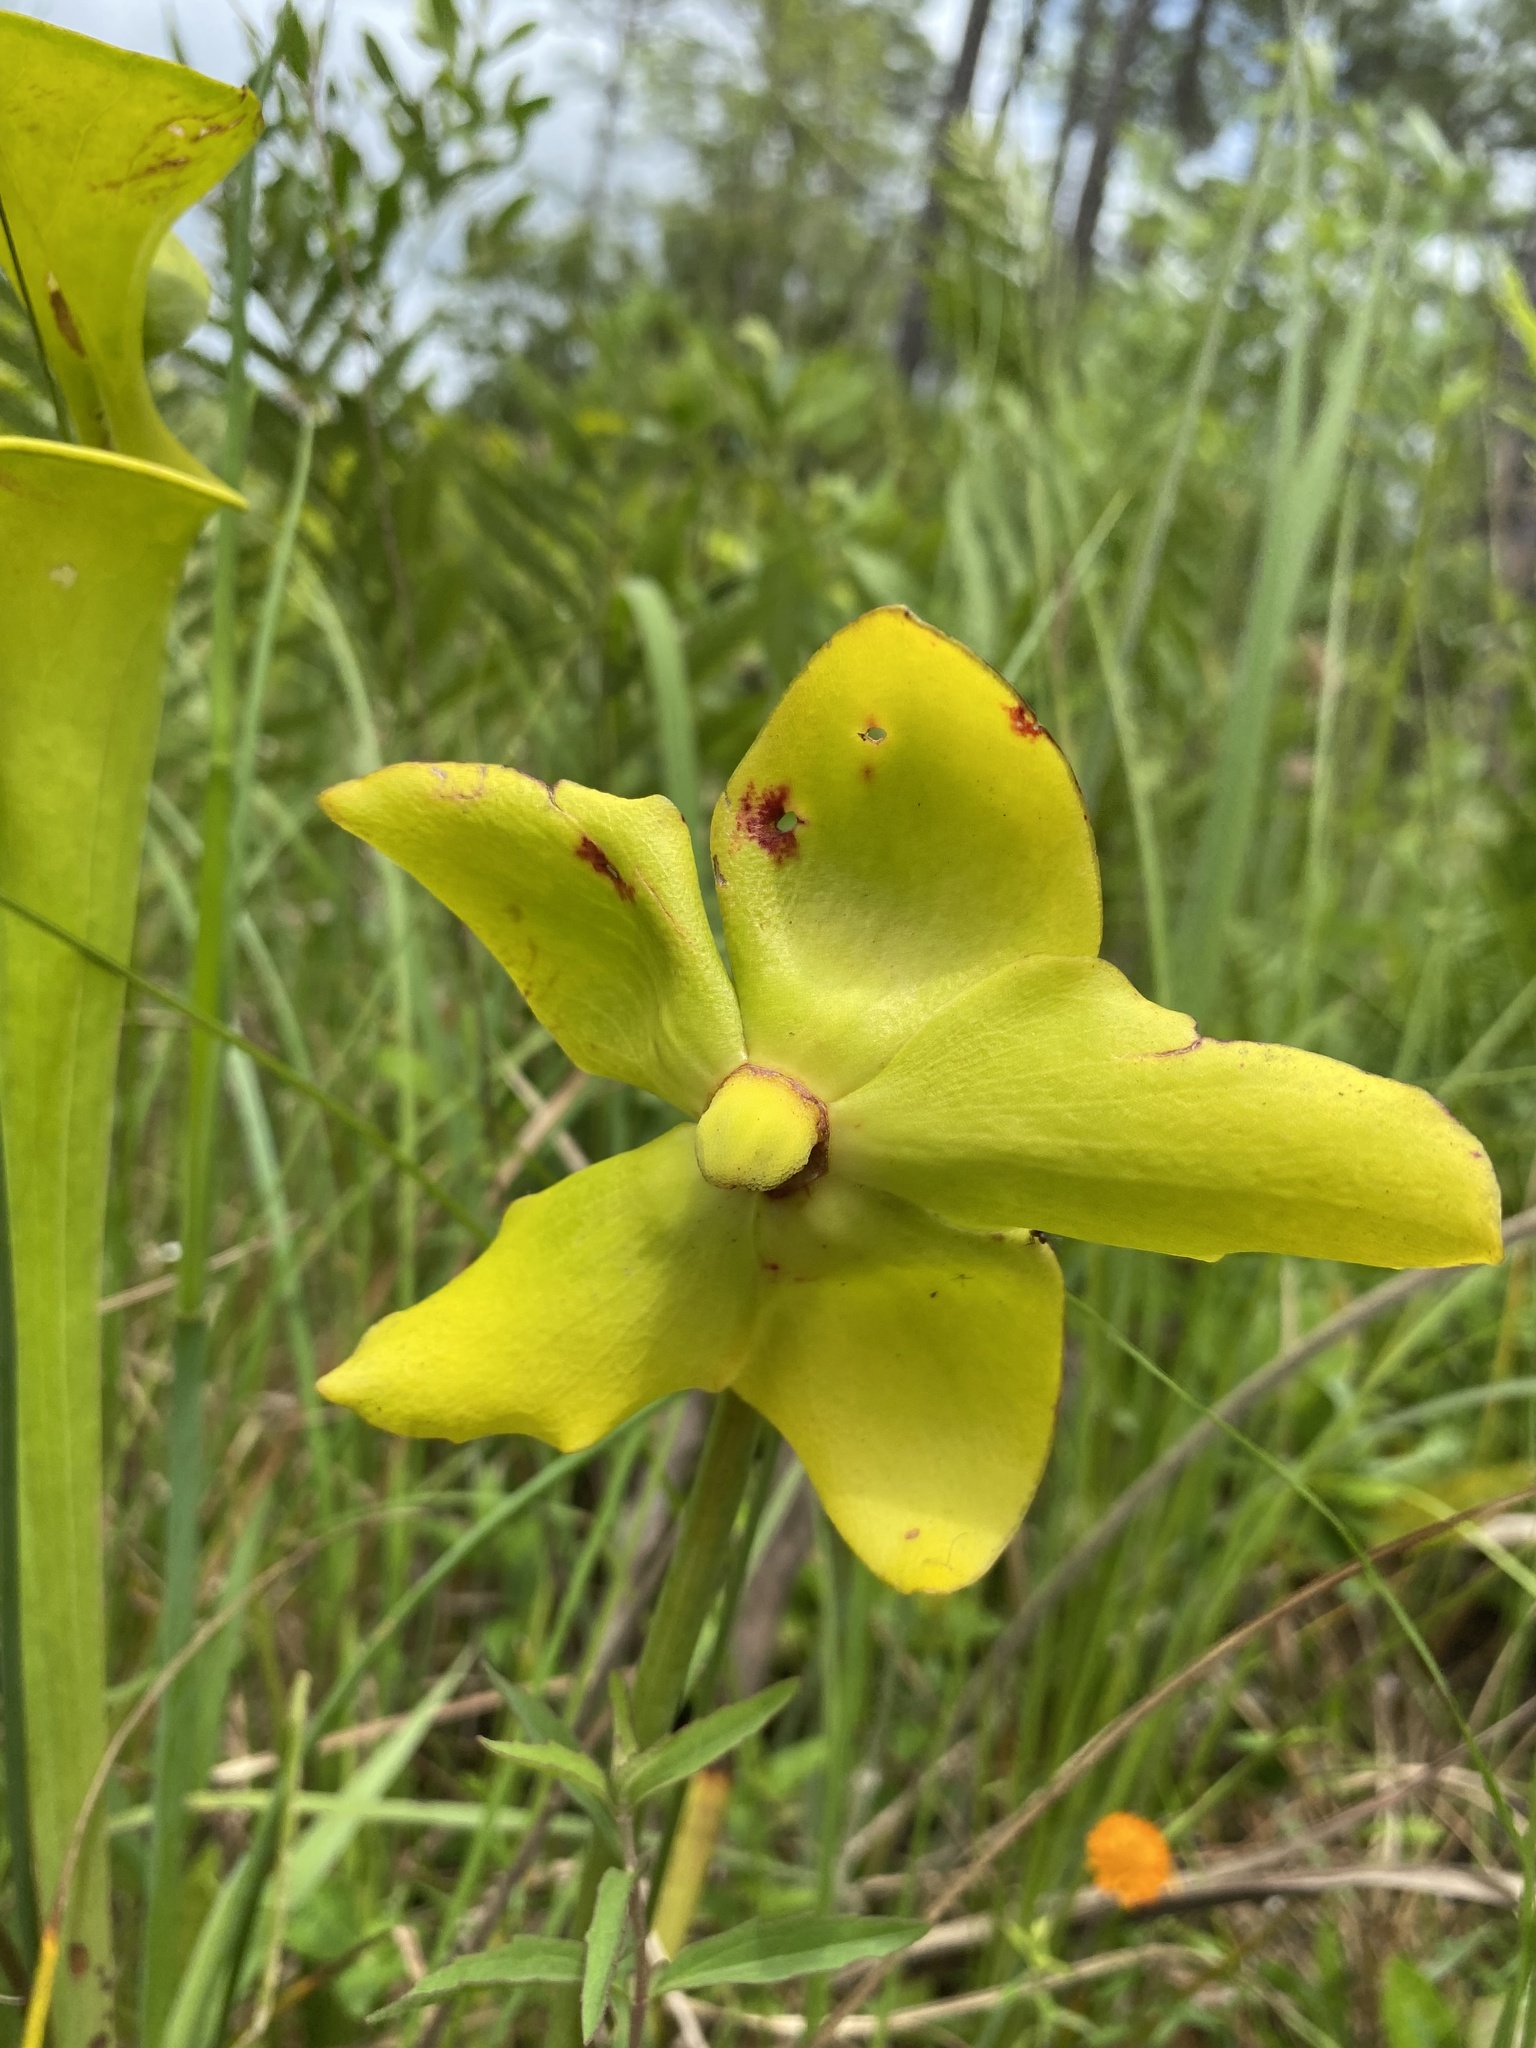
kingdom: Plantae
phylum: Tracheophyta
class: Magnoliopsida
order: Ericales
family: Sarraceniaceae
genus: Sarracenia
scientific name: Sarracenia flava
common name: Trumpets
